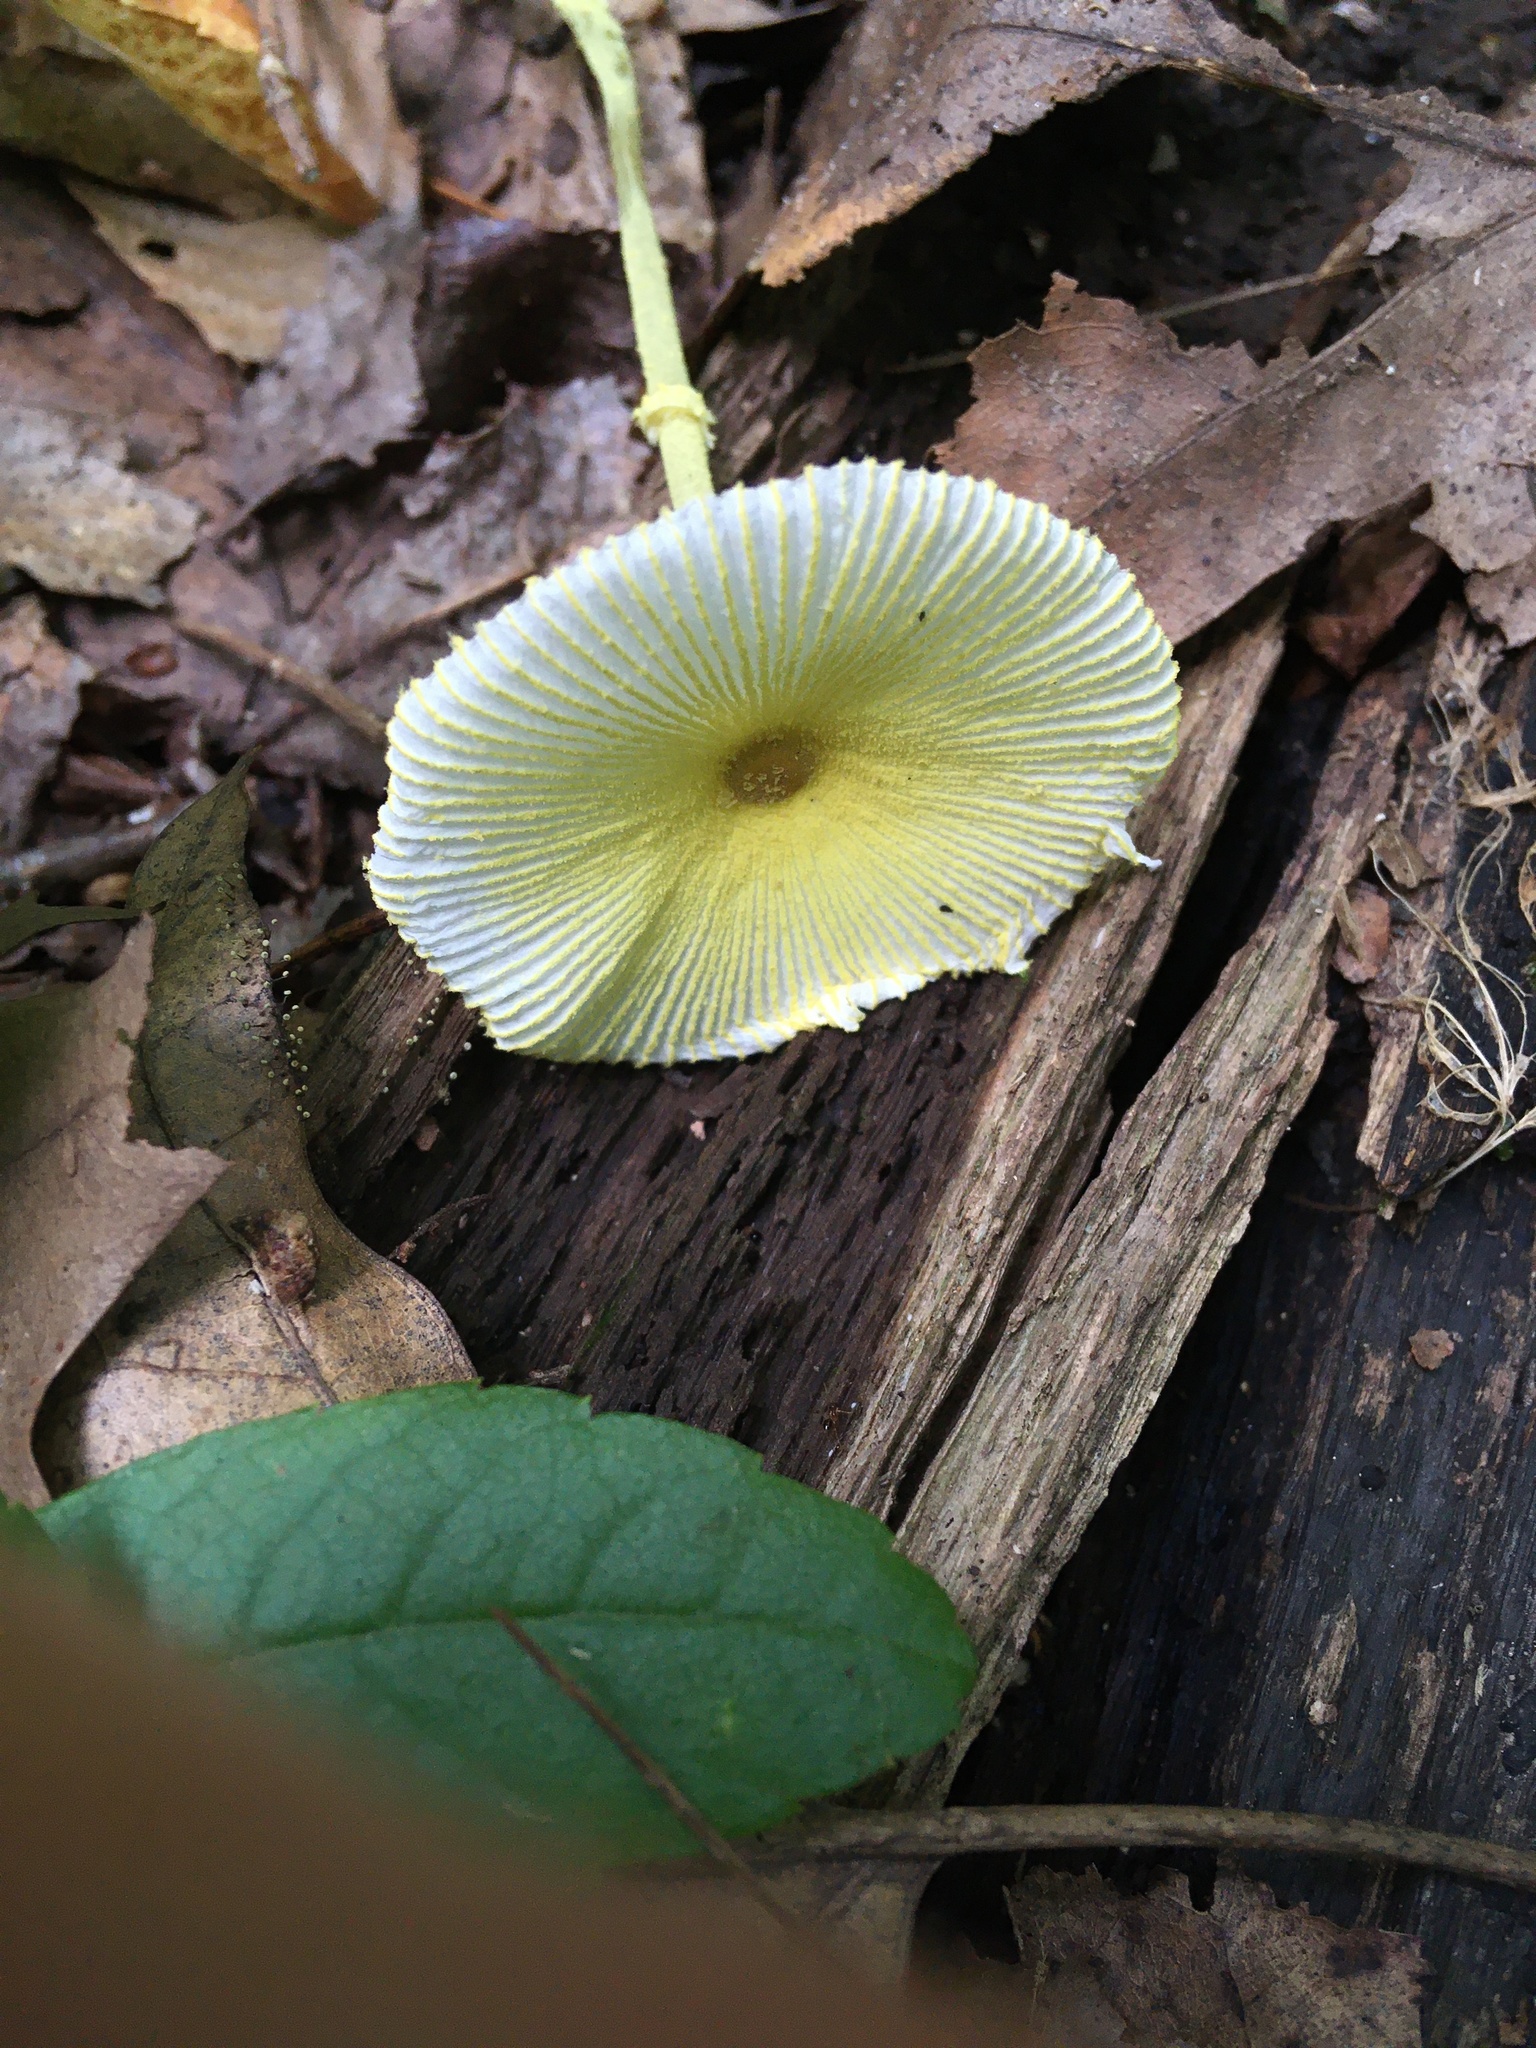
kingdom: Fungi
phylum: Basidiomycota
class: Agaricomycetes
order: Agaricales
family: Agaricaceae
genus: Leucocoprinus
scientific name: Leucocoprinus fragilissimus
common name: Fragile dapperling
